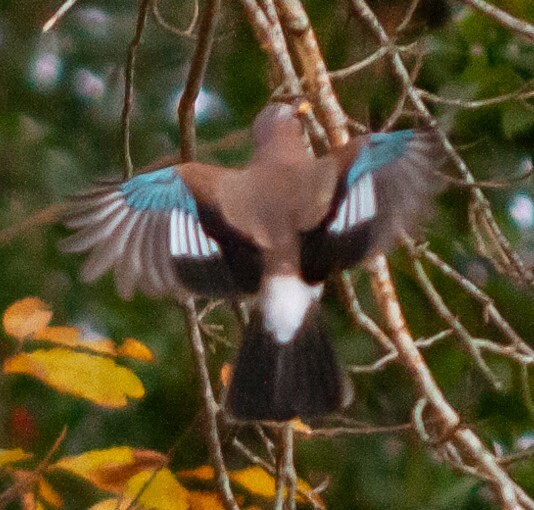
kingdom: Animalia
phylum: Chordata
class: Aves
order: Passeriformes
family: Corvidae
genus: Garrulus
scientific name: Garrulus glandarius
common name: Eurasian jay
